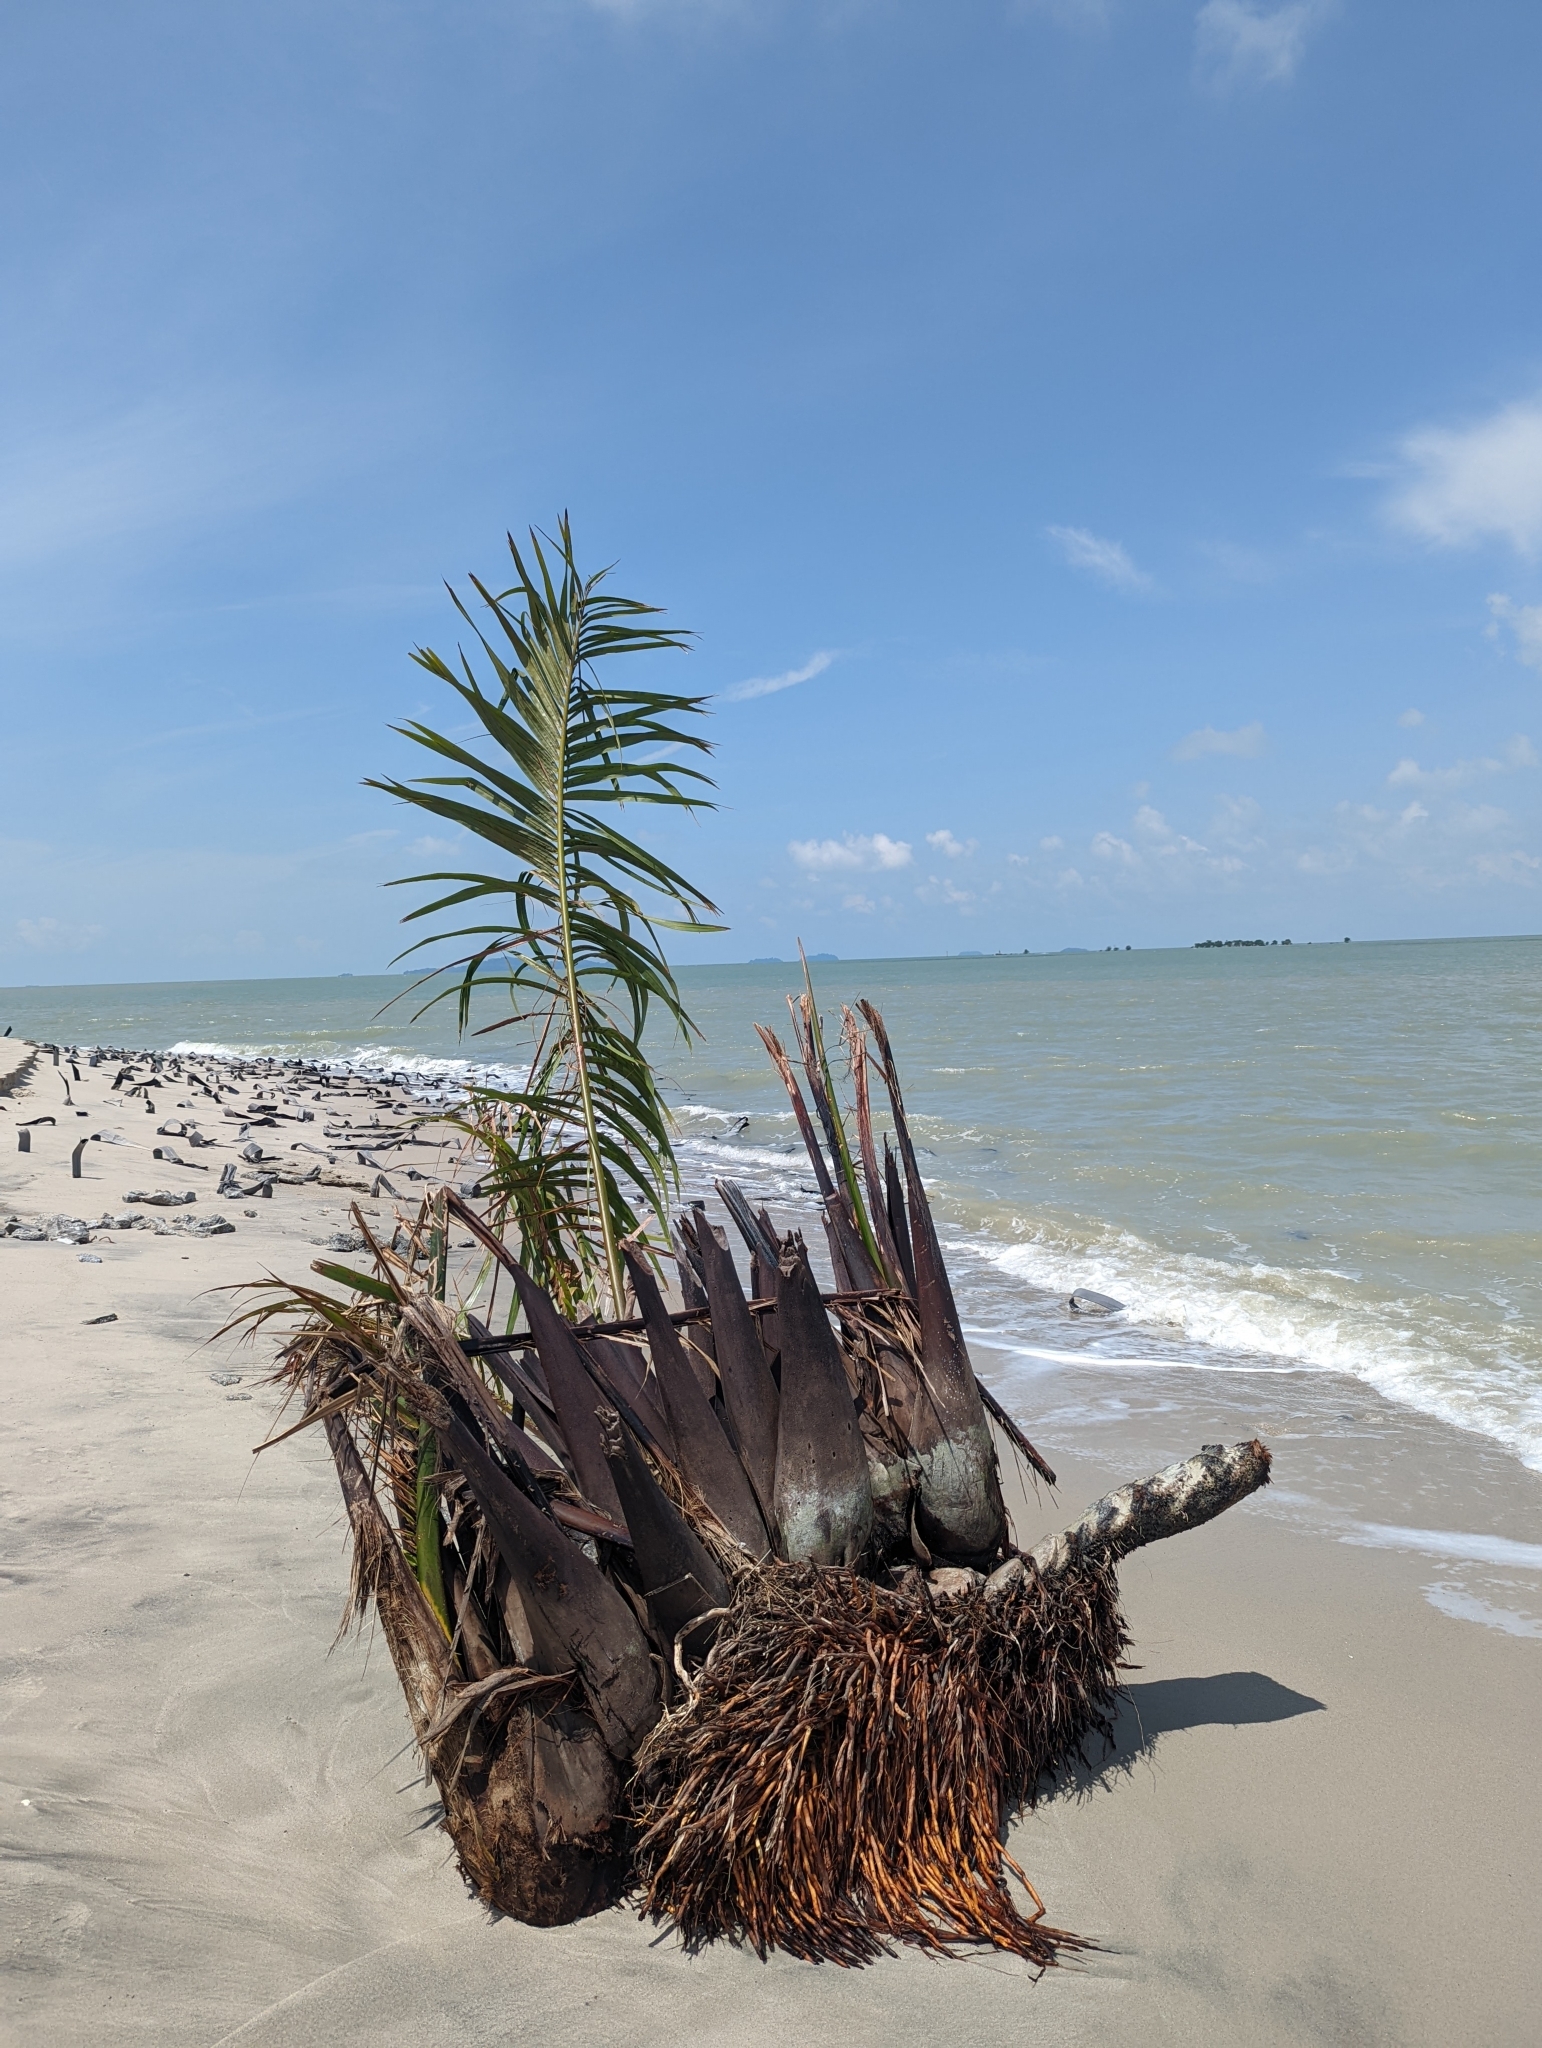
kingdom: Plantae
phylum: Tracheophyta
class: Liliopsida
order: Arecales
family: Arecaceae
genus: Cocos
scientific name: Cocos nucifera
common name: Coconut palm
